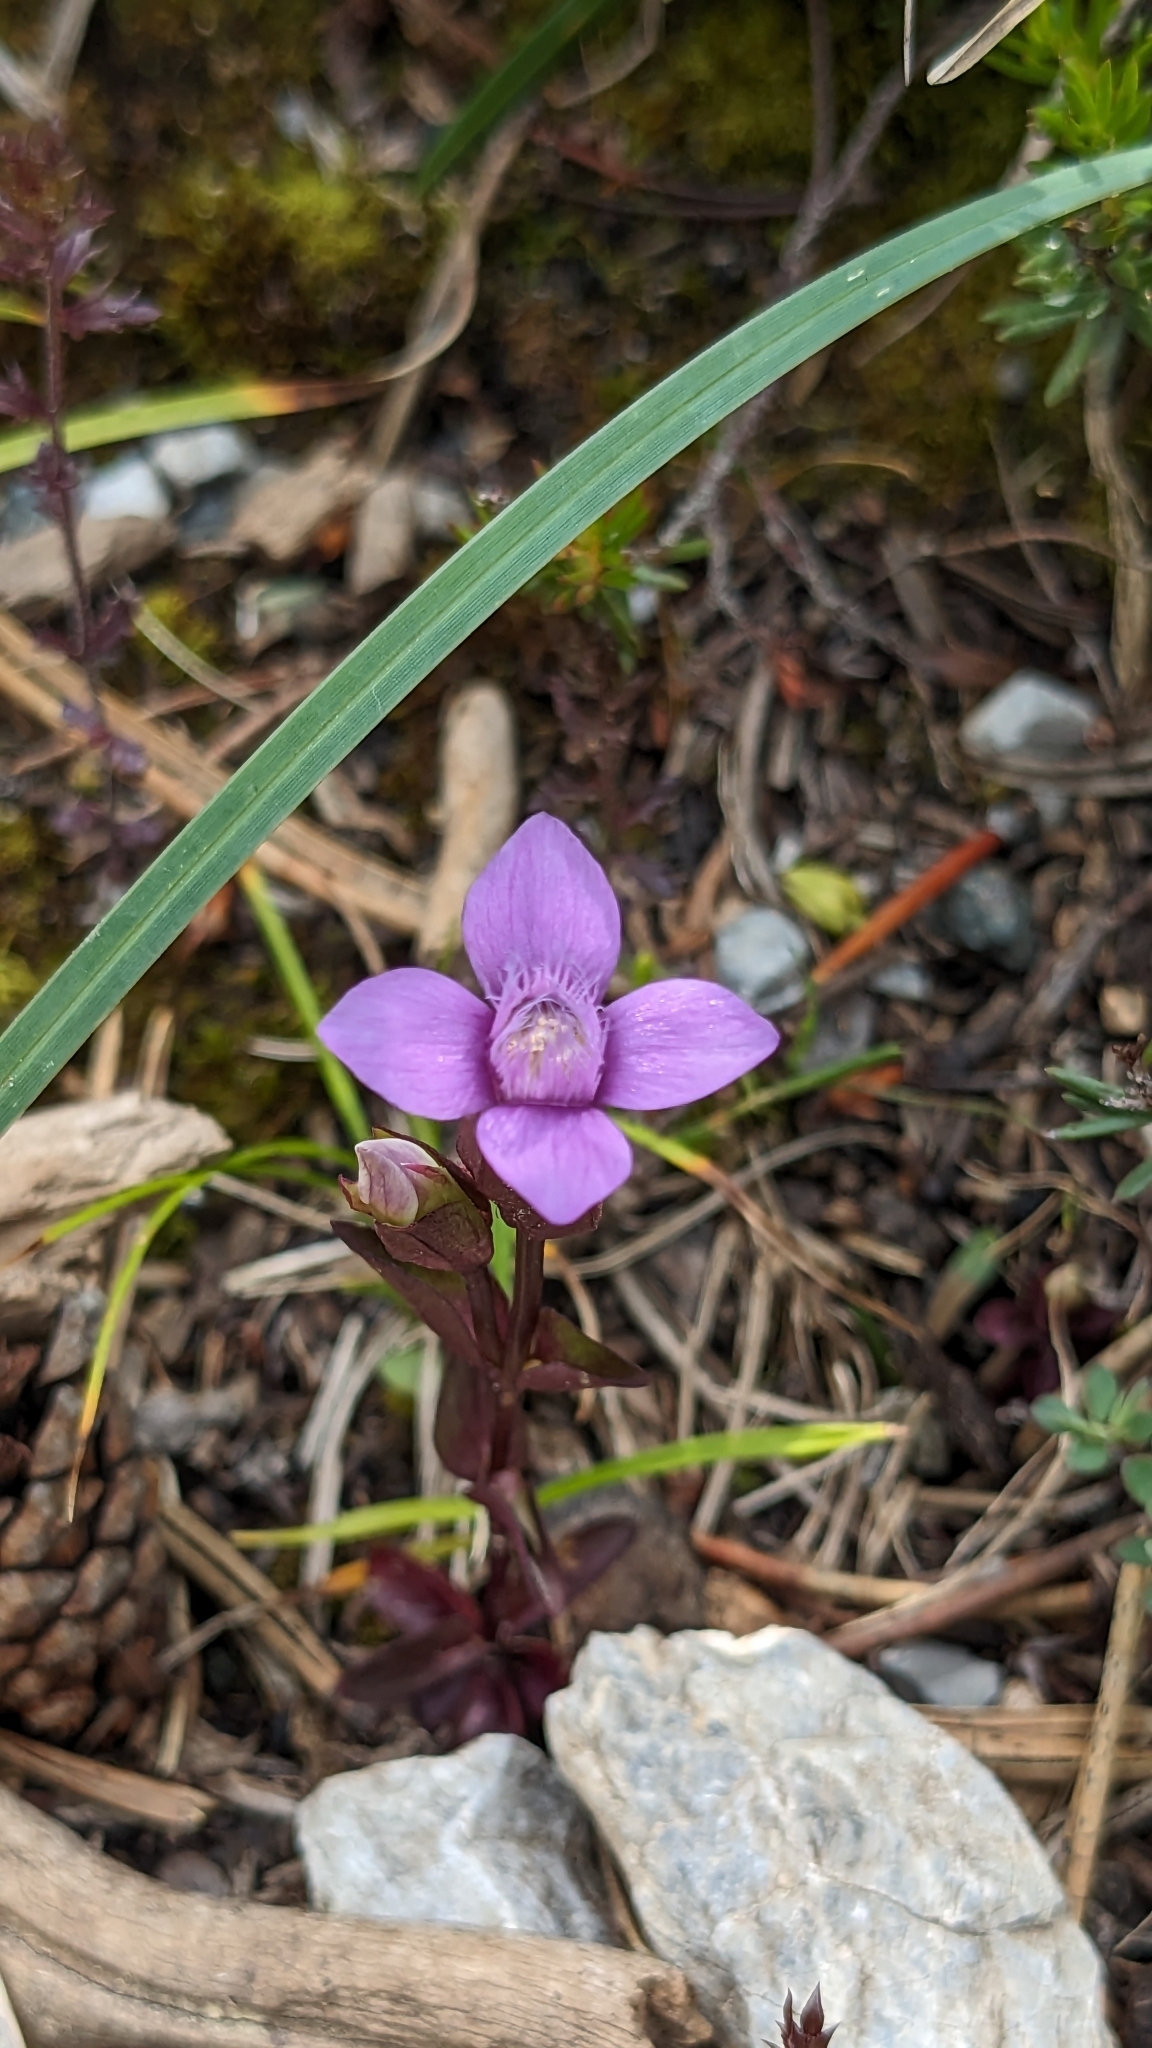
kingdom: Plantae
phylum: Tracheophyta
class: Magnoliopsida
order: Gentianales
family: Gentianaceae
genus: Gentianella
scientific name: Gentianella campestris
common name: Field gentian
